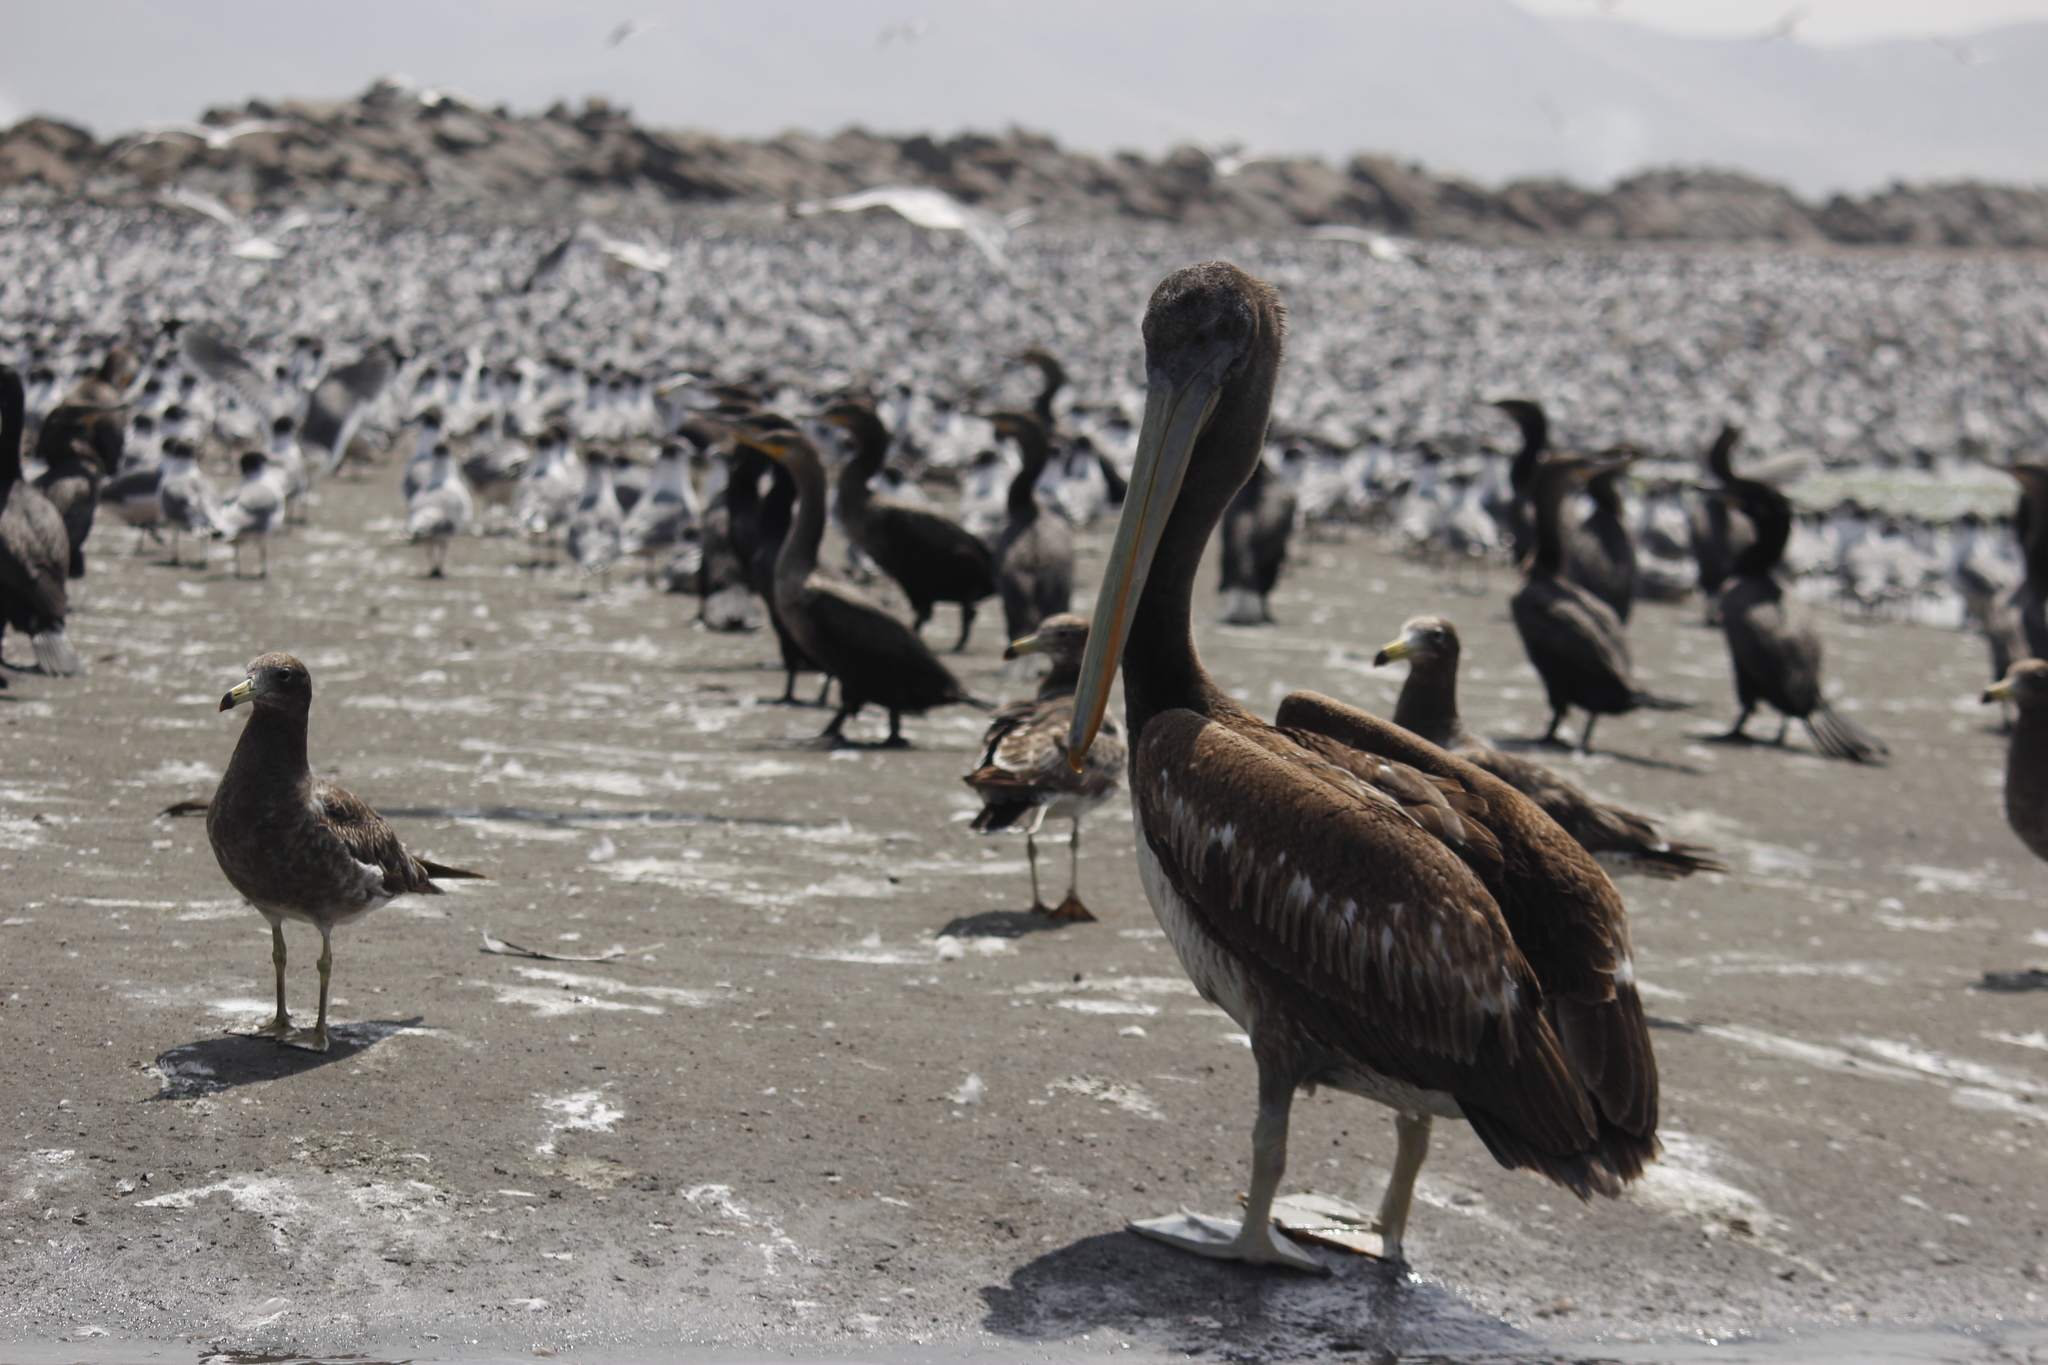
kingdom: Animalia
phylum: Chordata
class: Aves
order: Pelecaniformes
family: Pelecanidae
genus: Pelecanus
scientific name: Pelecanus thagus
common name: Peruvian pelican
